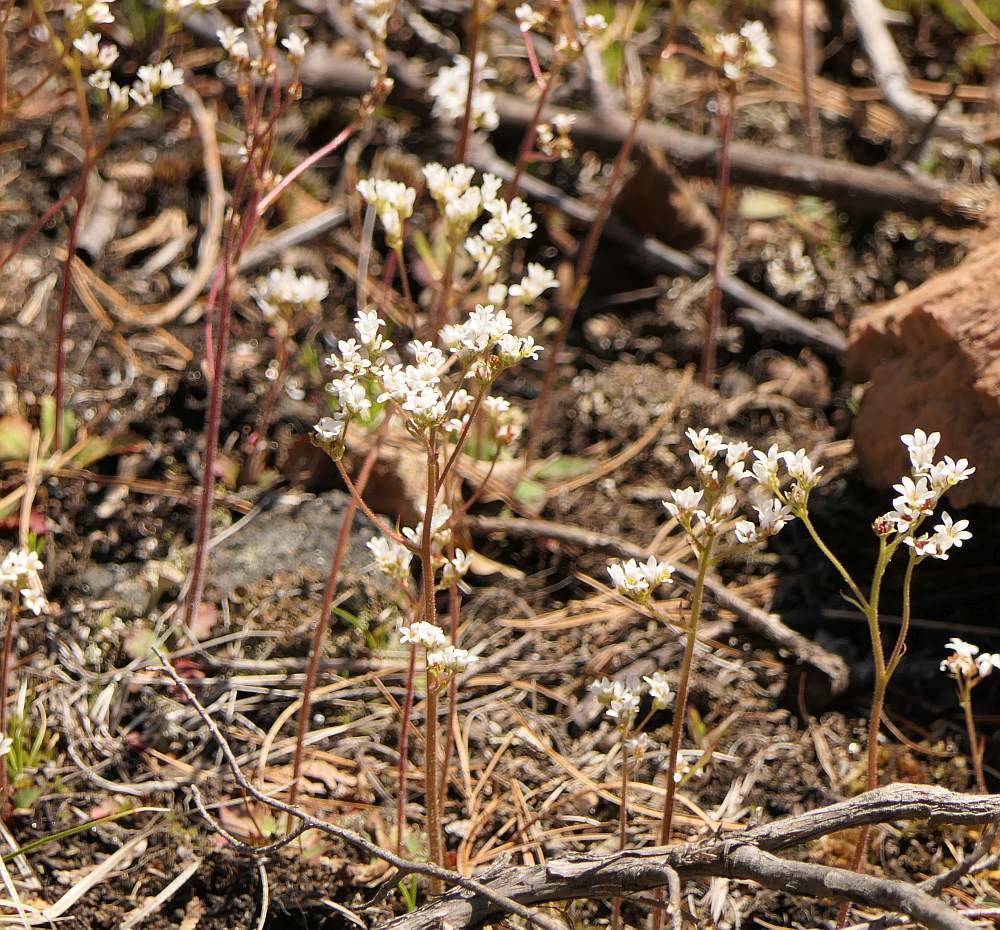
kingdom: Plantae
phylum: Tracheophyta
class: Magnoliopsida
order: Saxifragales
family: Saxifragaceae
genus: Micranthes
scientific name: Micranthes virginiensis
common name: Early saxifrage
